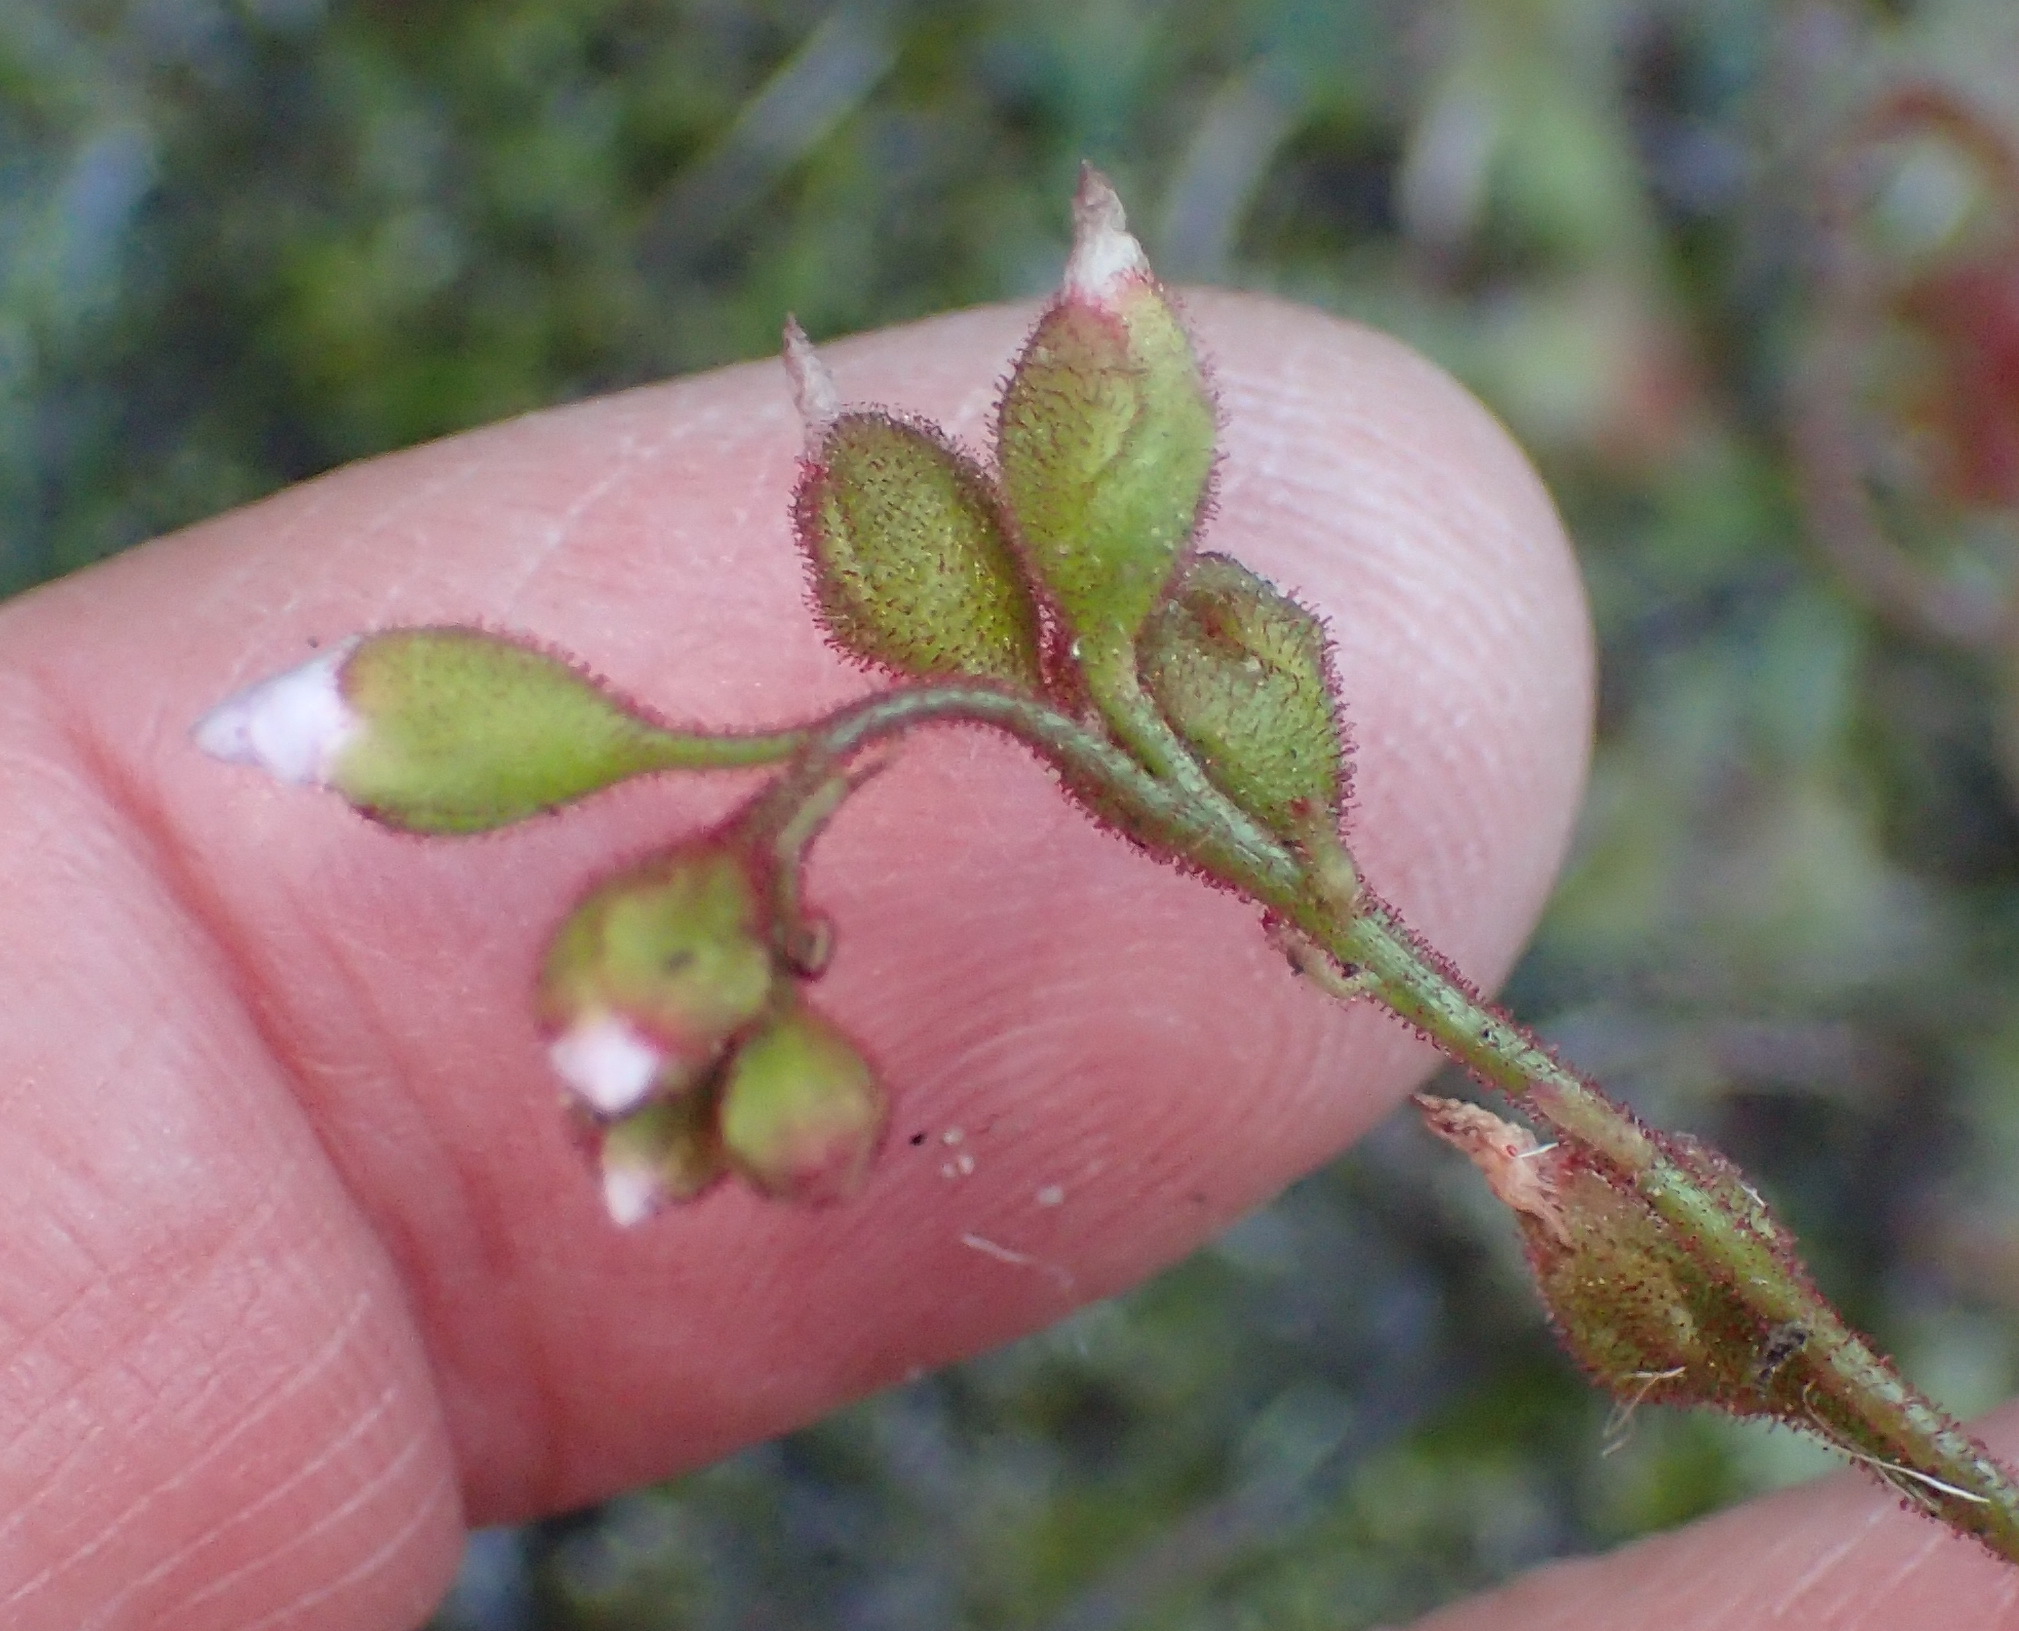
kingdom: Plantae
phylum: Tracheophyta
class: Magnoliopsida
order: Caryophyllales
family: Droseraceae
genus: Drosera
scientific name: Drosera natalensis
